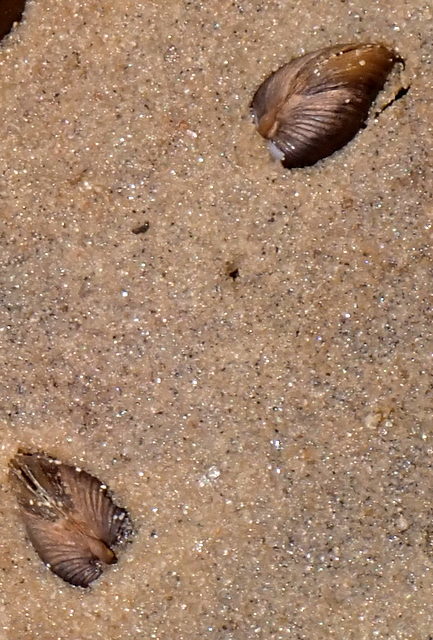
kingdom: Animalia
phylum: Mollusca
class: Bivalvia
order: Venerida
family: Cyrenidae
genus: Corbicula
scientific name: Corbicula fluminea
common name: Asian clam
